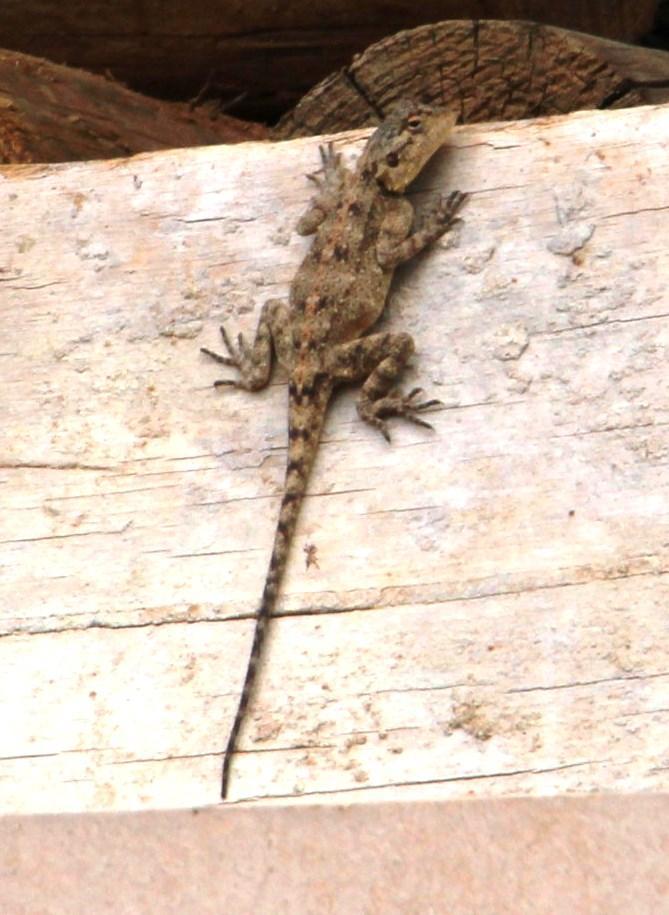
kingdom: Animalia
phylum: Chordata
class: Squamata
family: Agamidae
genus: Agama
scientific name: Agama atra
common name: Southern african rock agama
